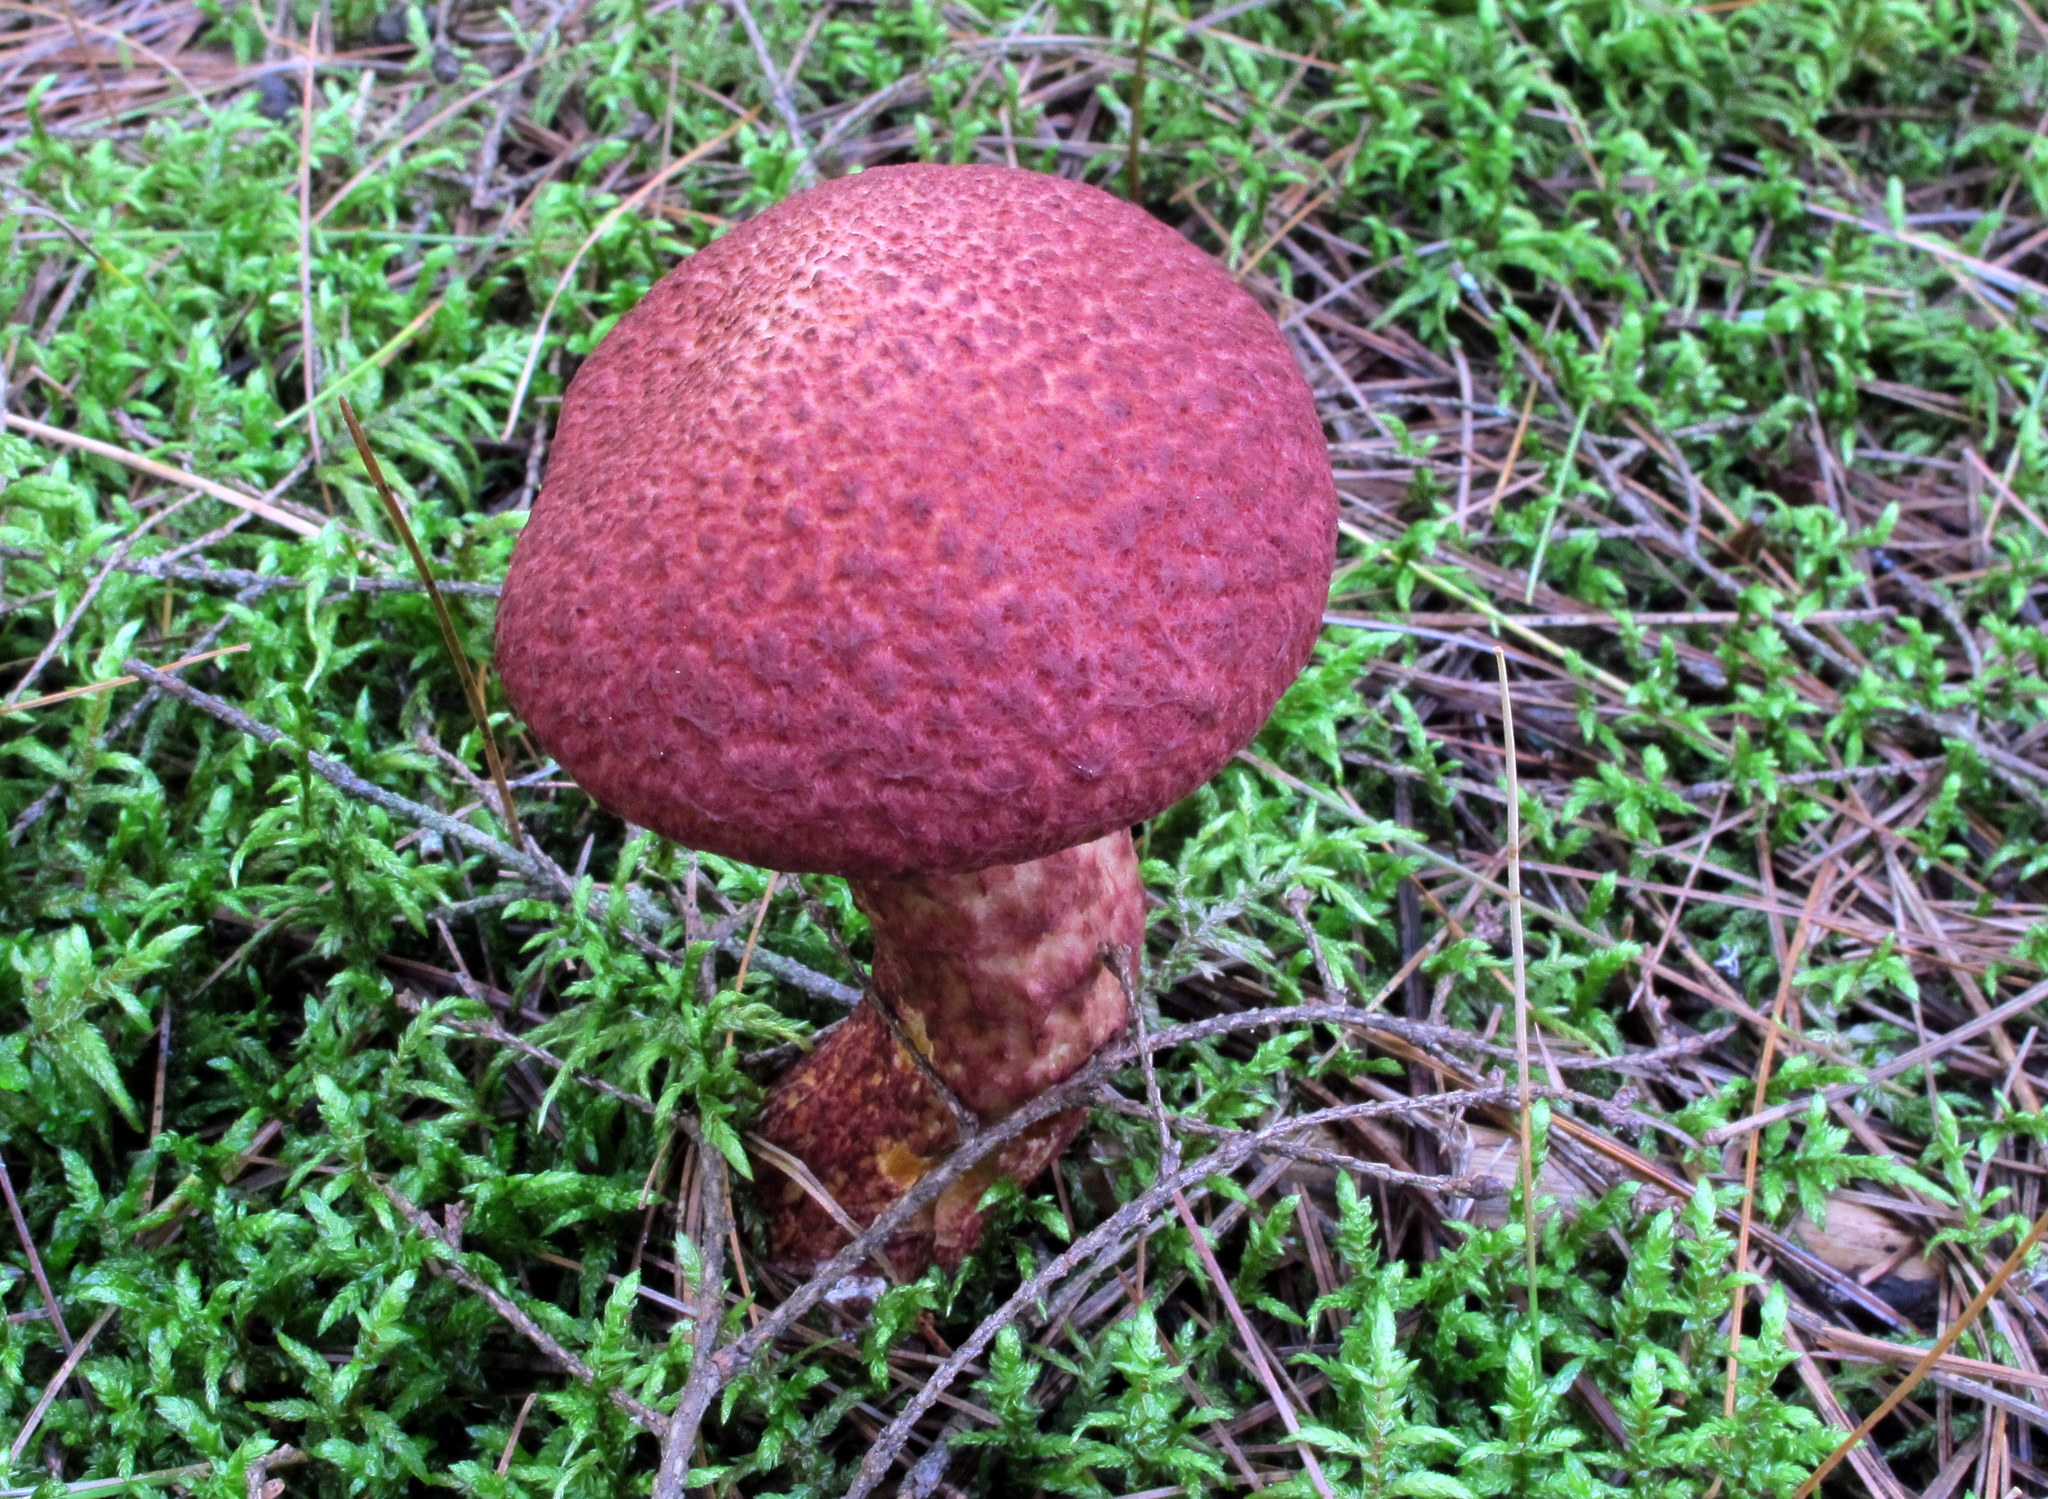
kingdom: Fungi
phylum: Basidiomycota
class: Agaricomycetes
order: Boletales
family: Suillaceae
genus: Suillus
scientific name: Suillus spraguei
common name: Painted suillus
